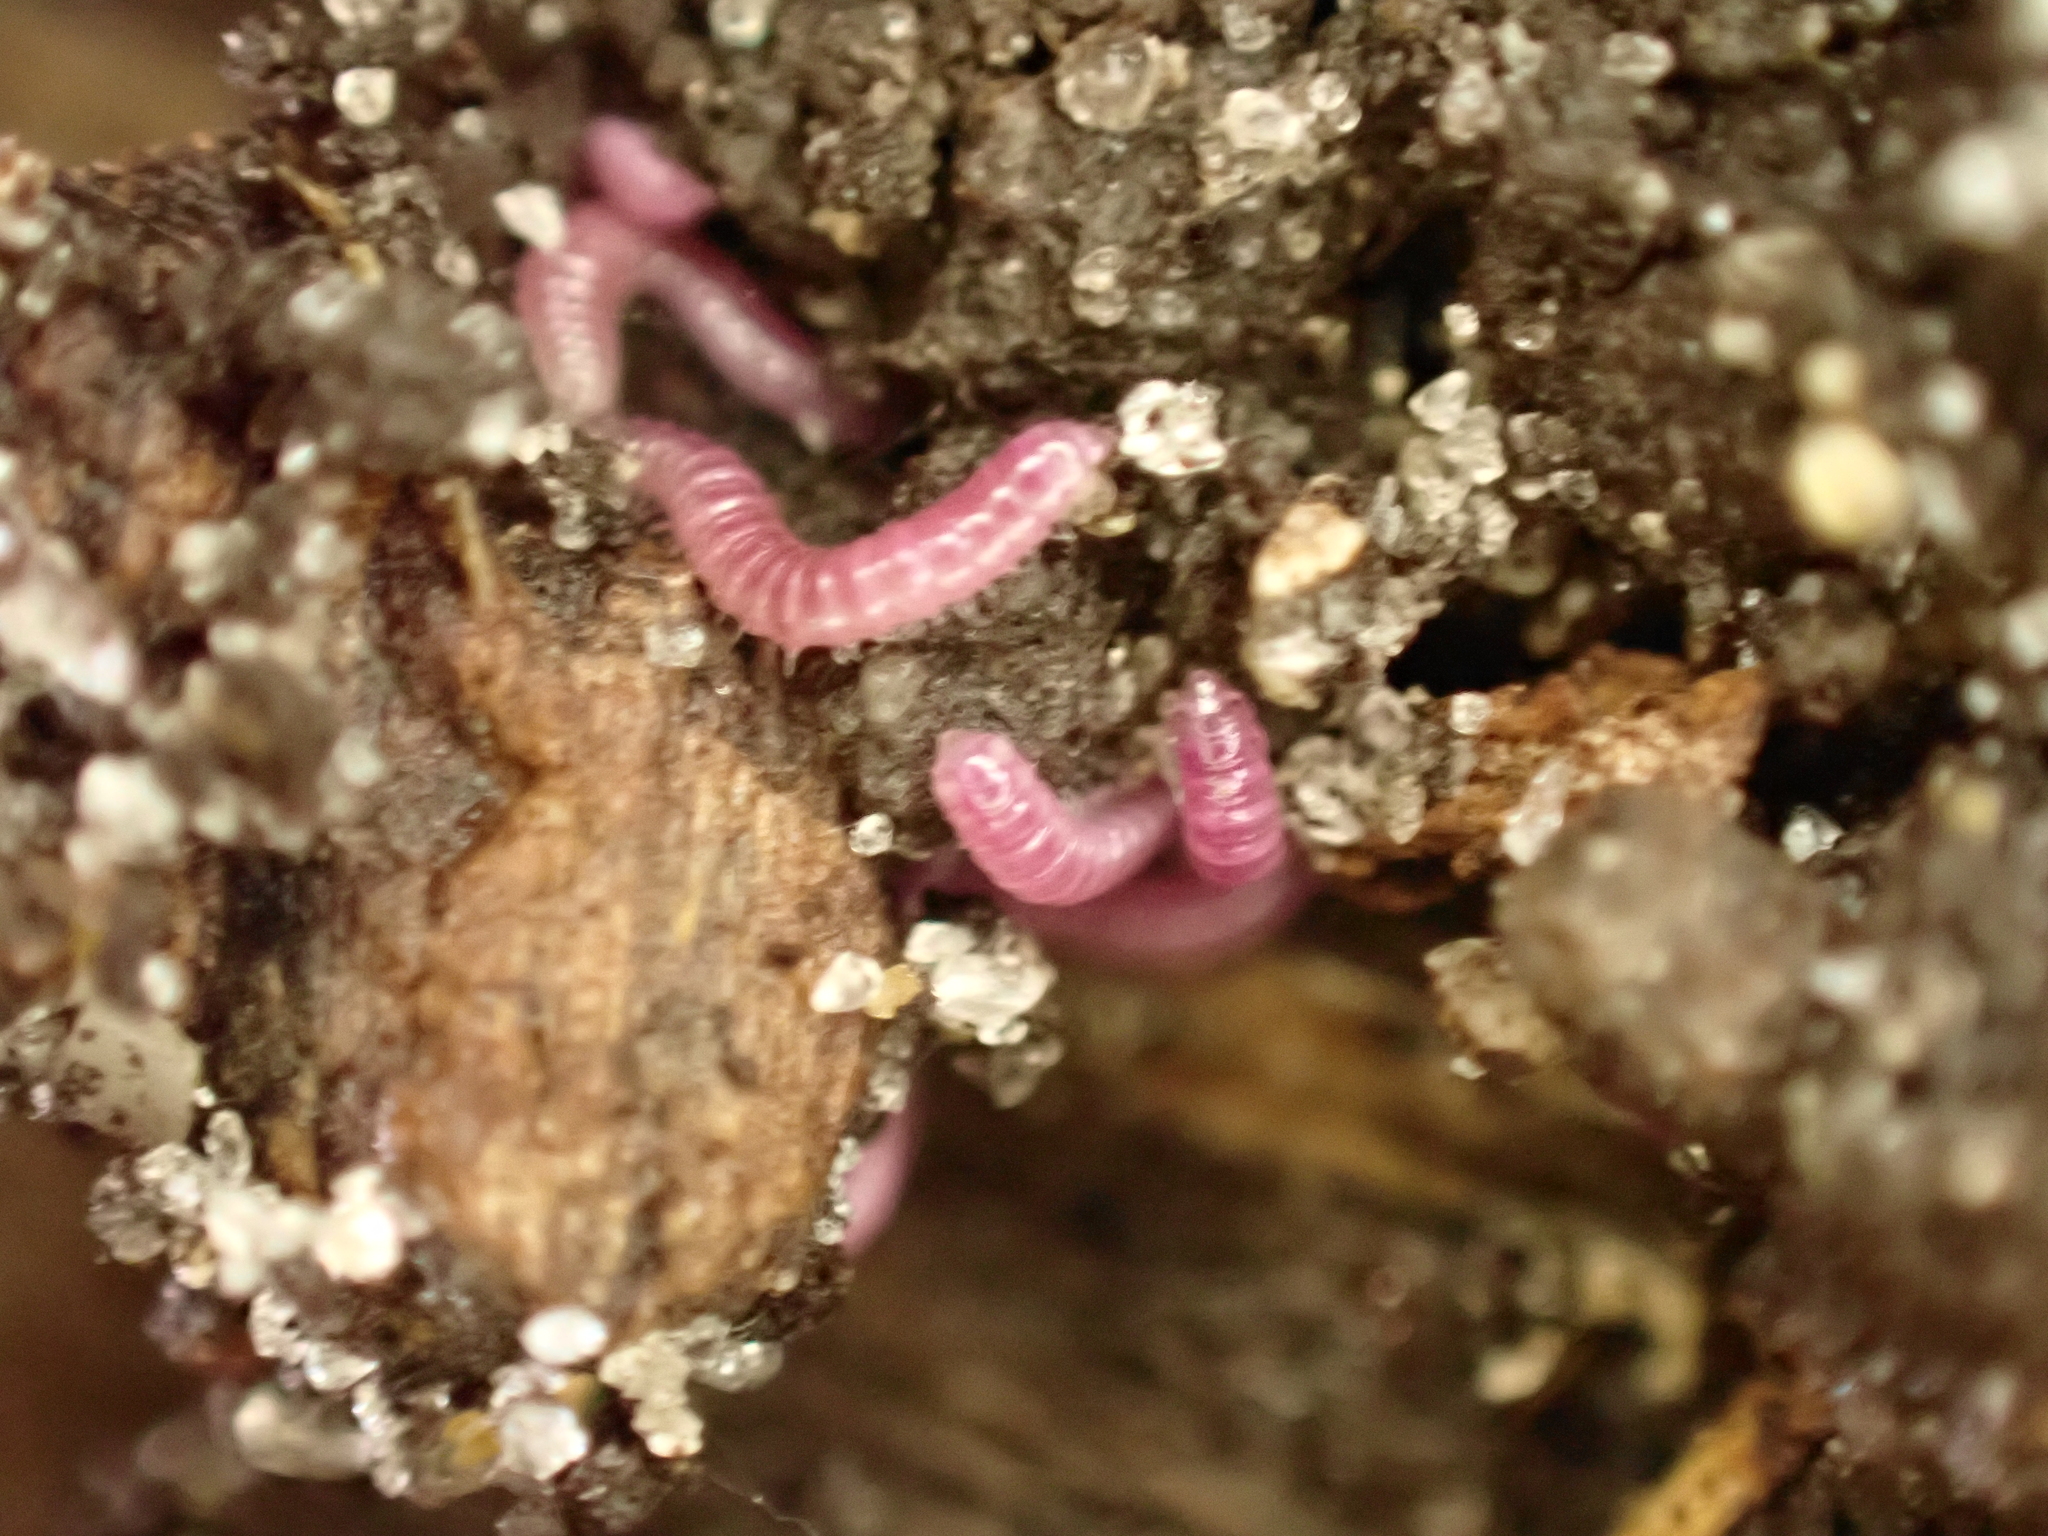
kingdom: Animalia
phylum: Arthropoda
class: Diplopoda
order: Polyzoniida
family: Siphonotidae
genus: Rhinotus
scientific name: Rhinotus purpureus
